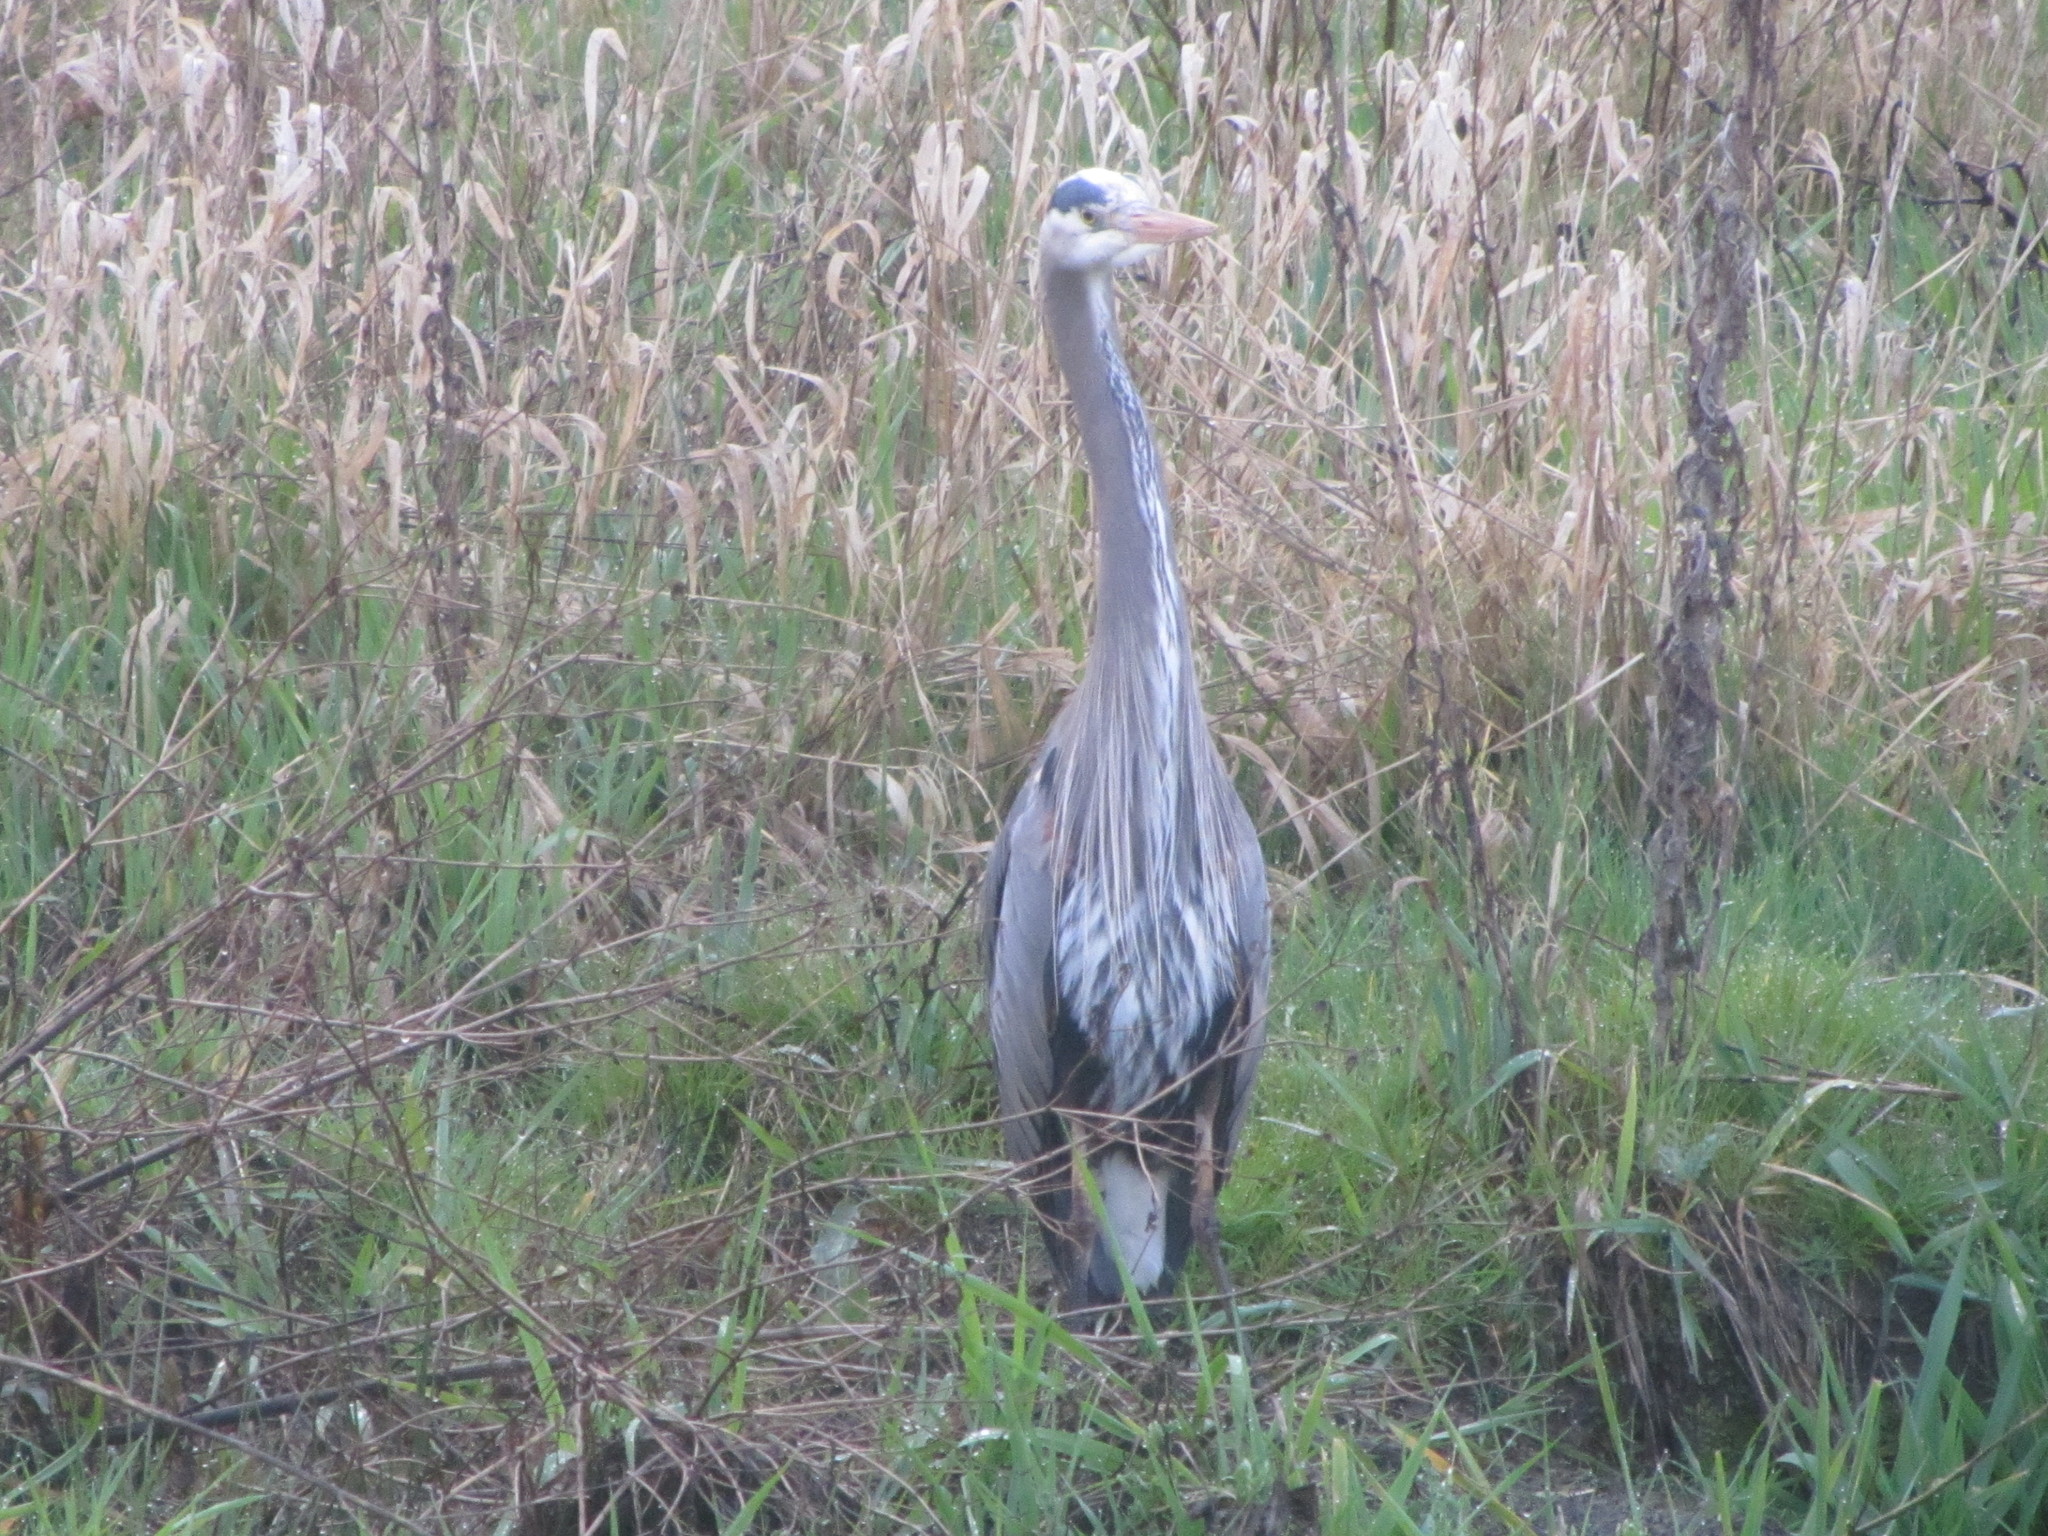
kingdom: Animalia
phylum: Chordata
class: Aves
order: Pelecaniformes
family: Ardeidae
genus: Ardea
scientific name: Ardea herodias
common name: Great blue heron
